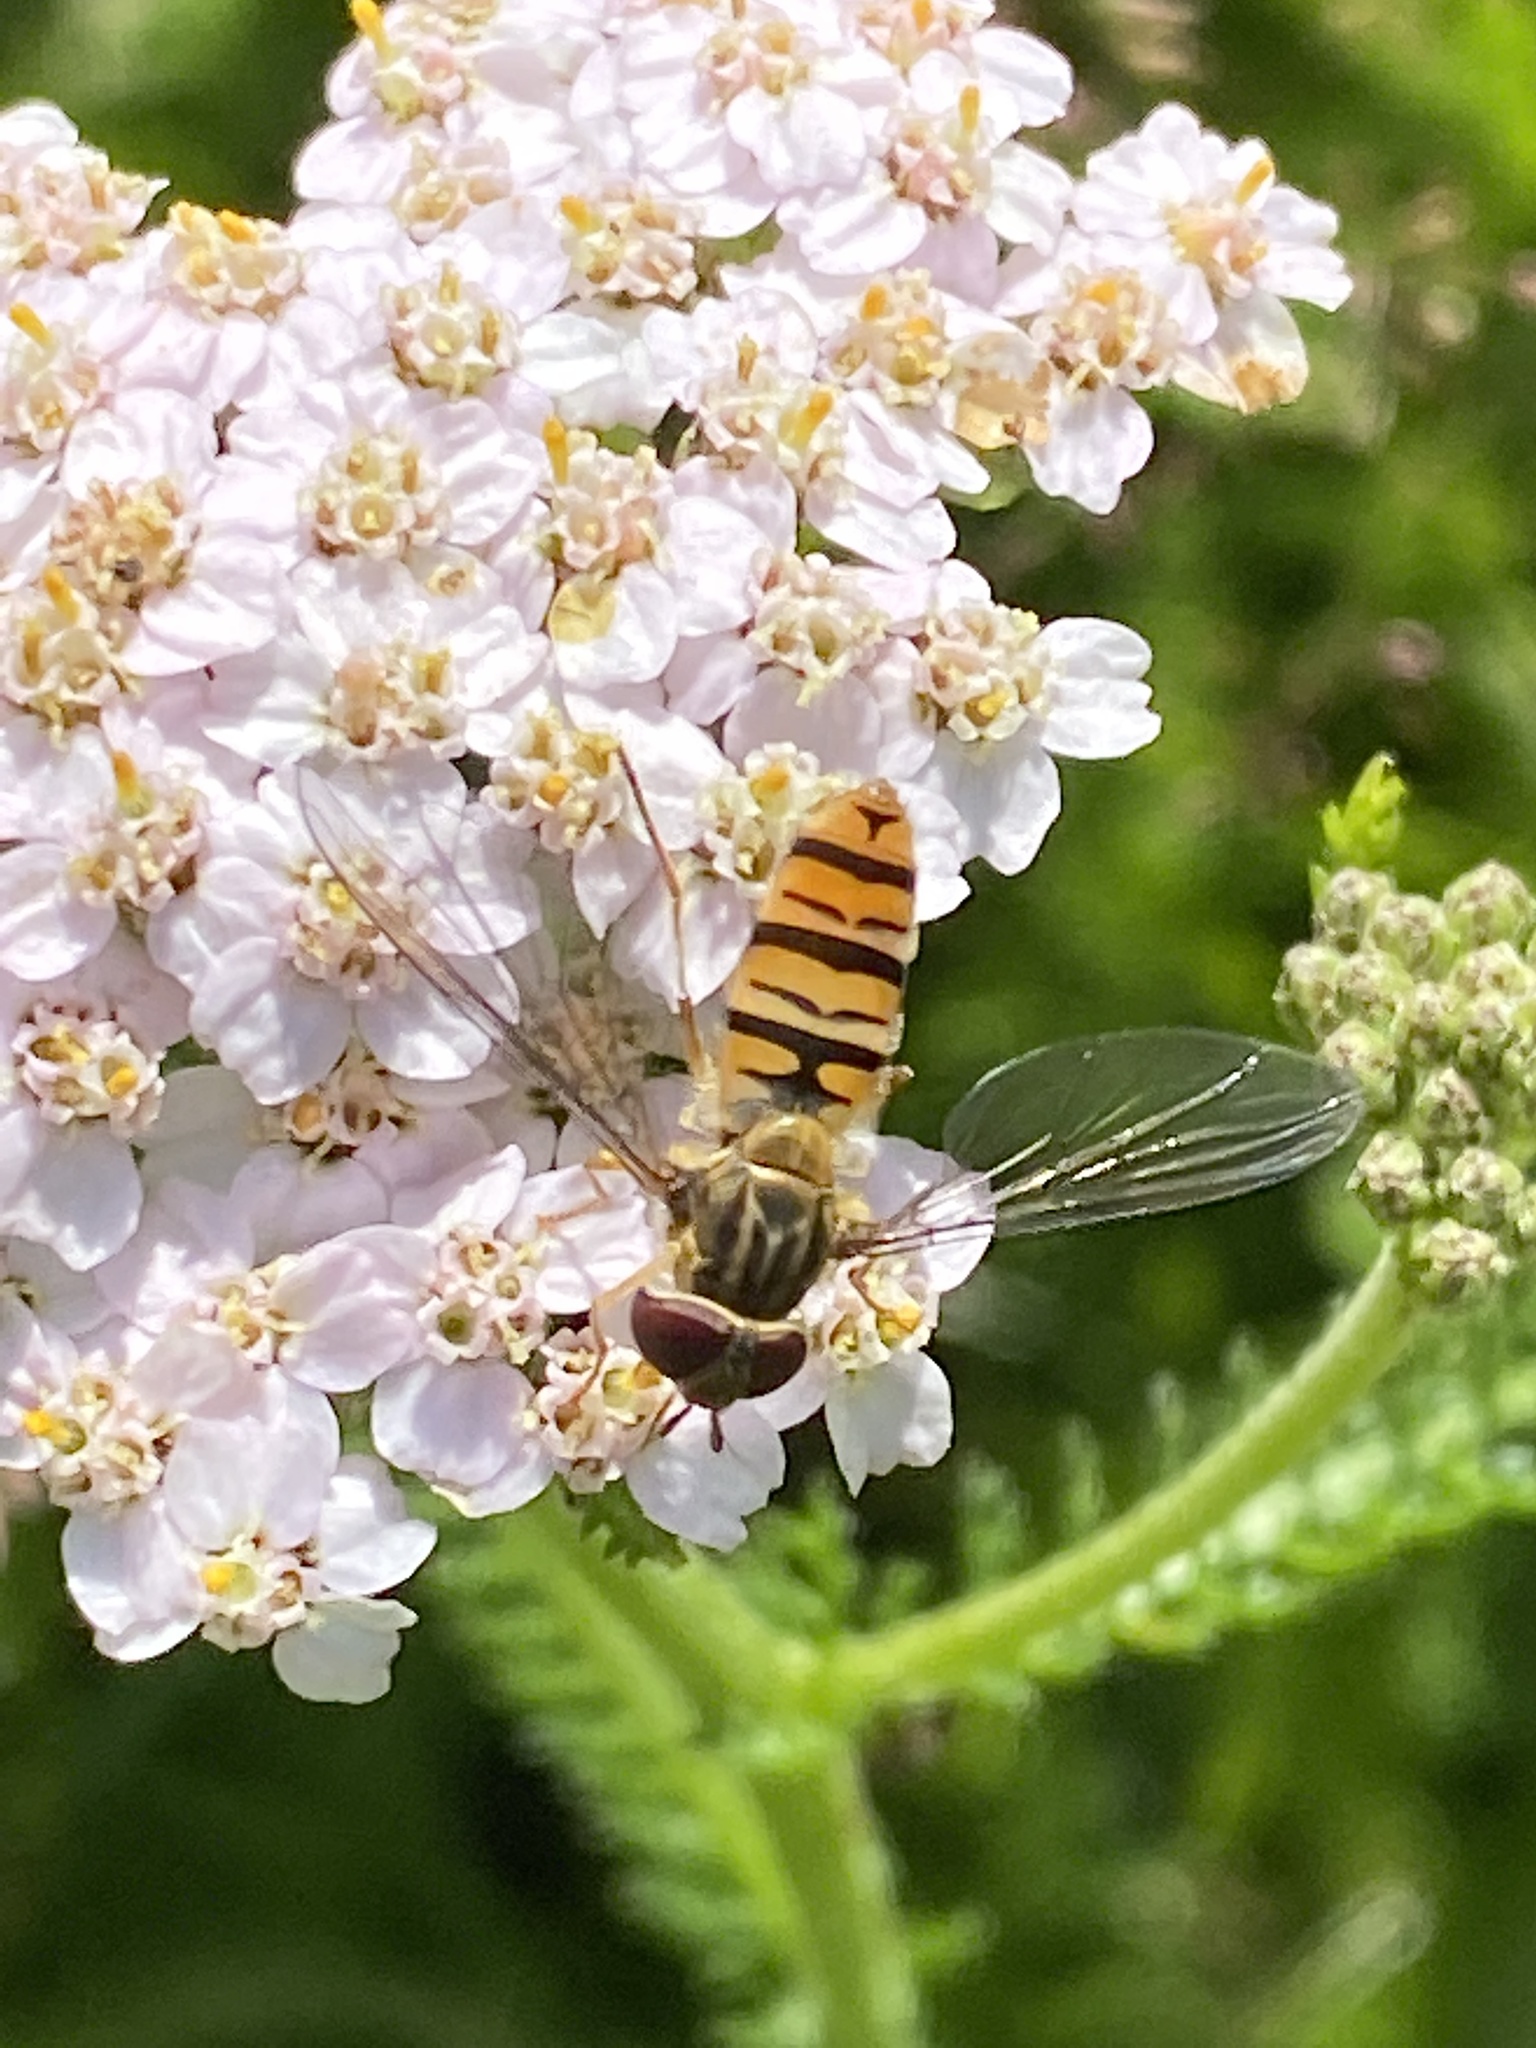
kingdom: Animalia
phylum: Arthropoda
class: Insecta
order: Diptera
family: Syrphidae
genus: Episyrphus
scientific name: Episyrphus balteatus
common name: Marmalade hoverfly
